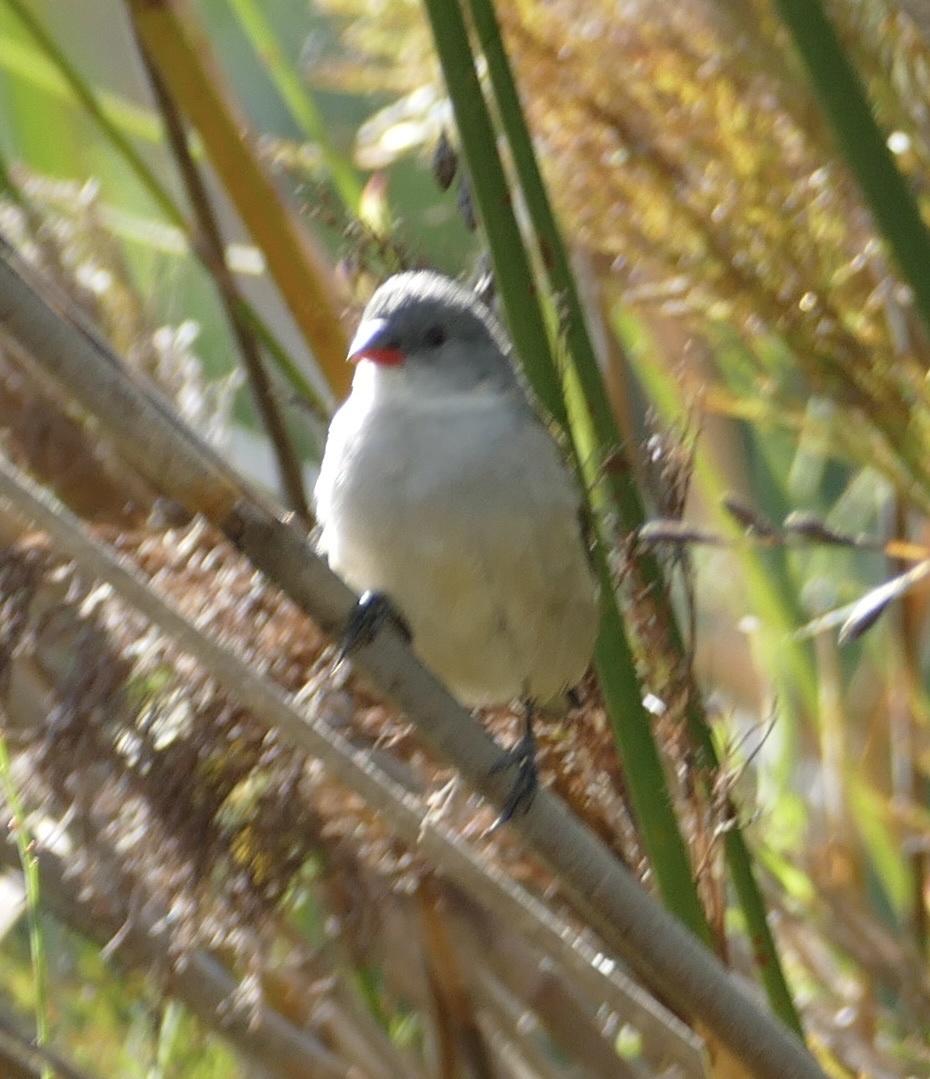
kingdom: Animalia
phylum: Chordata
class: Aves
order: Passeriformes
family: Estrildidae
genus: Coccopygia
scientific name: Coccopygia melanotis
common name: Swee waxbill
